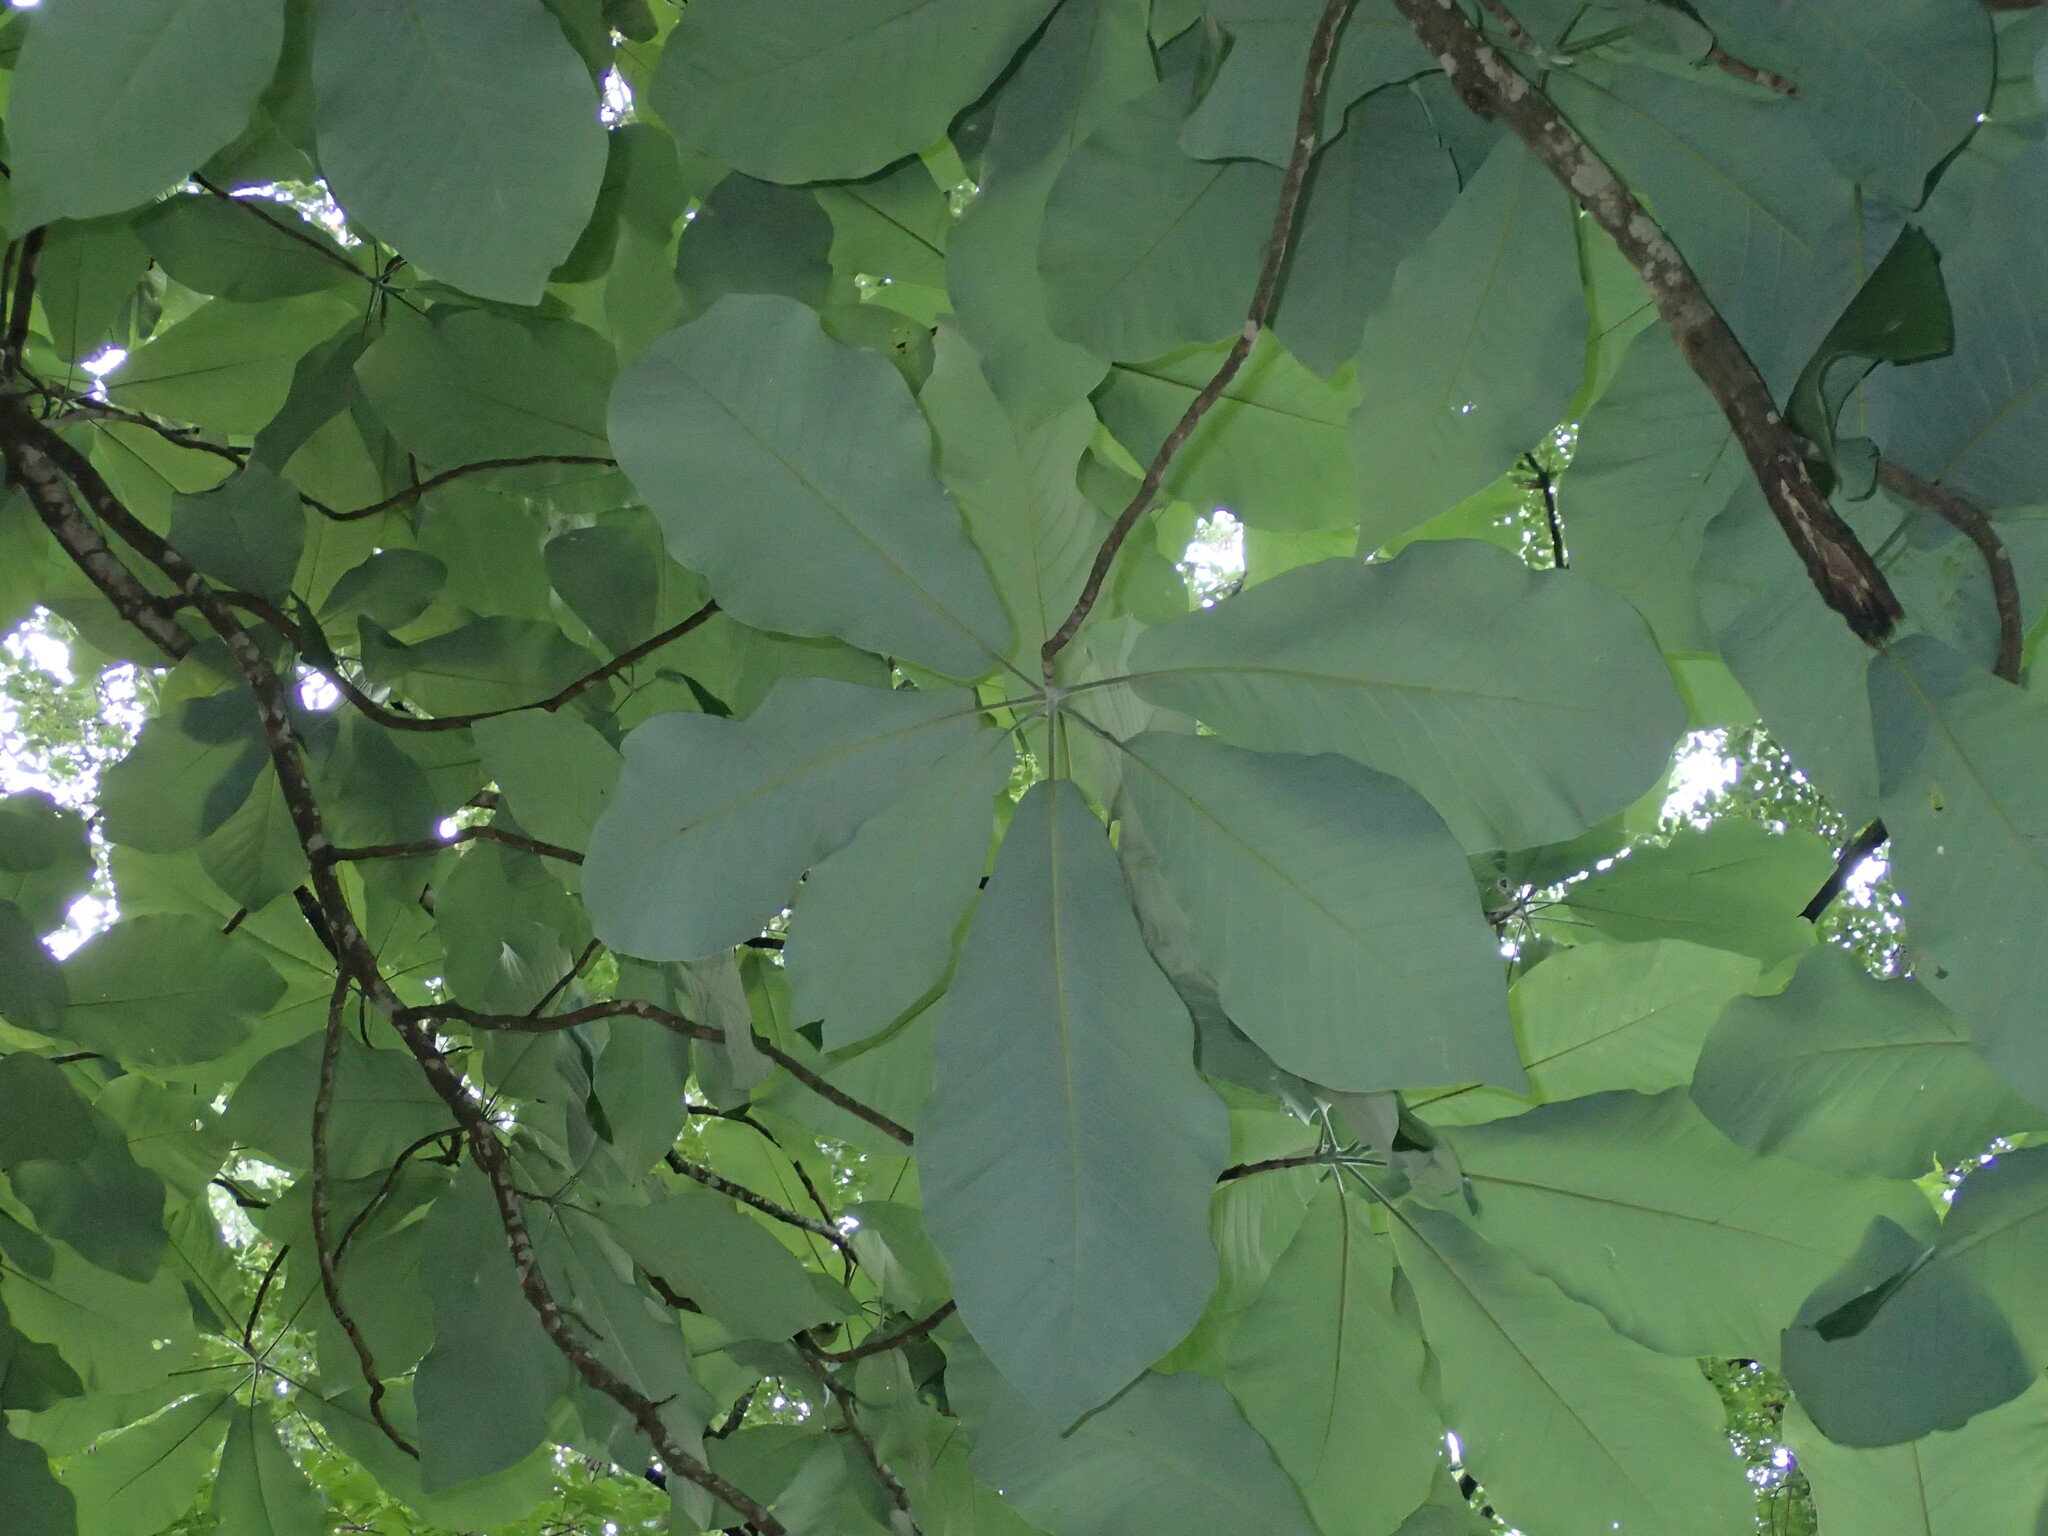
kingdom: Plantae
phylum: Tracheophyta
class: Magnoliopsida
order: Magnoliales
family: Magnoliaceae
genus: Magnolia
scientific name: Magnolia macrophylla
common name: Big-leaf magnolia
